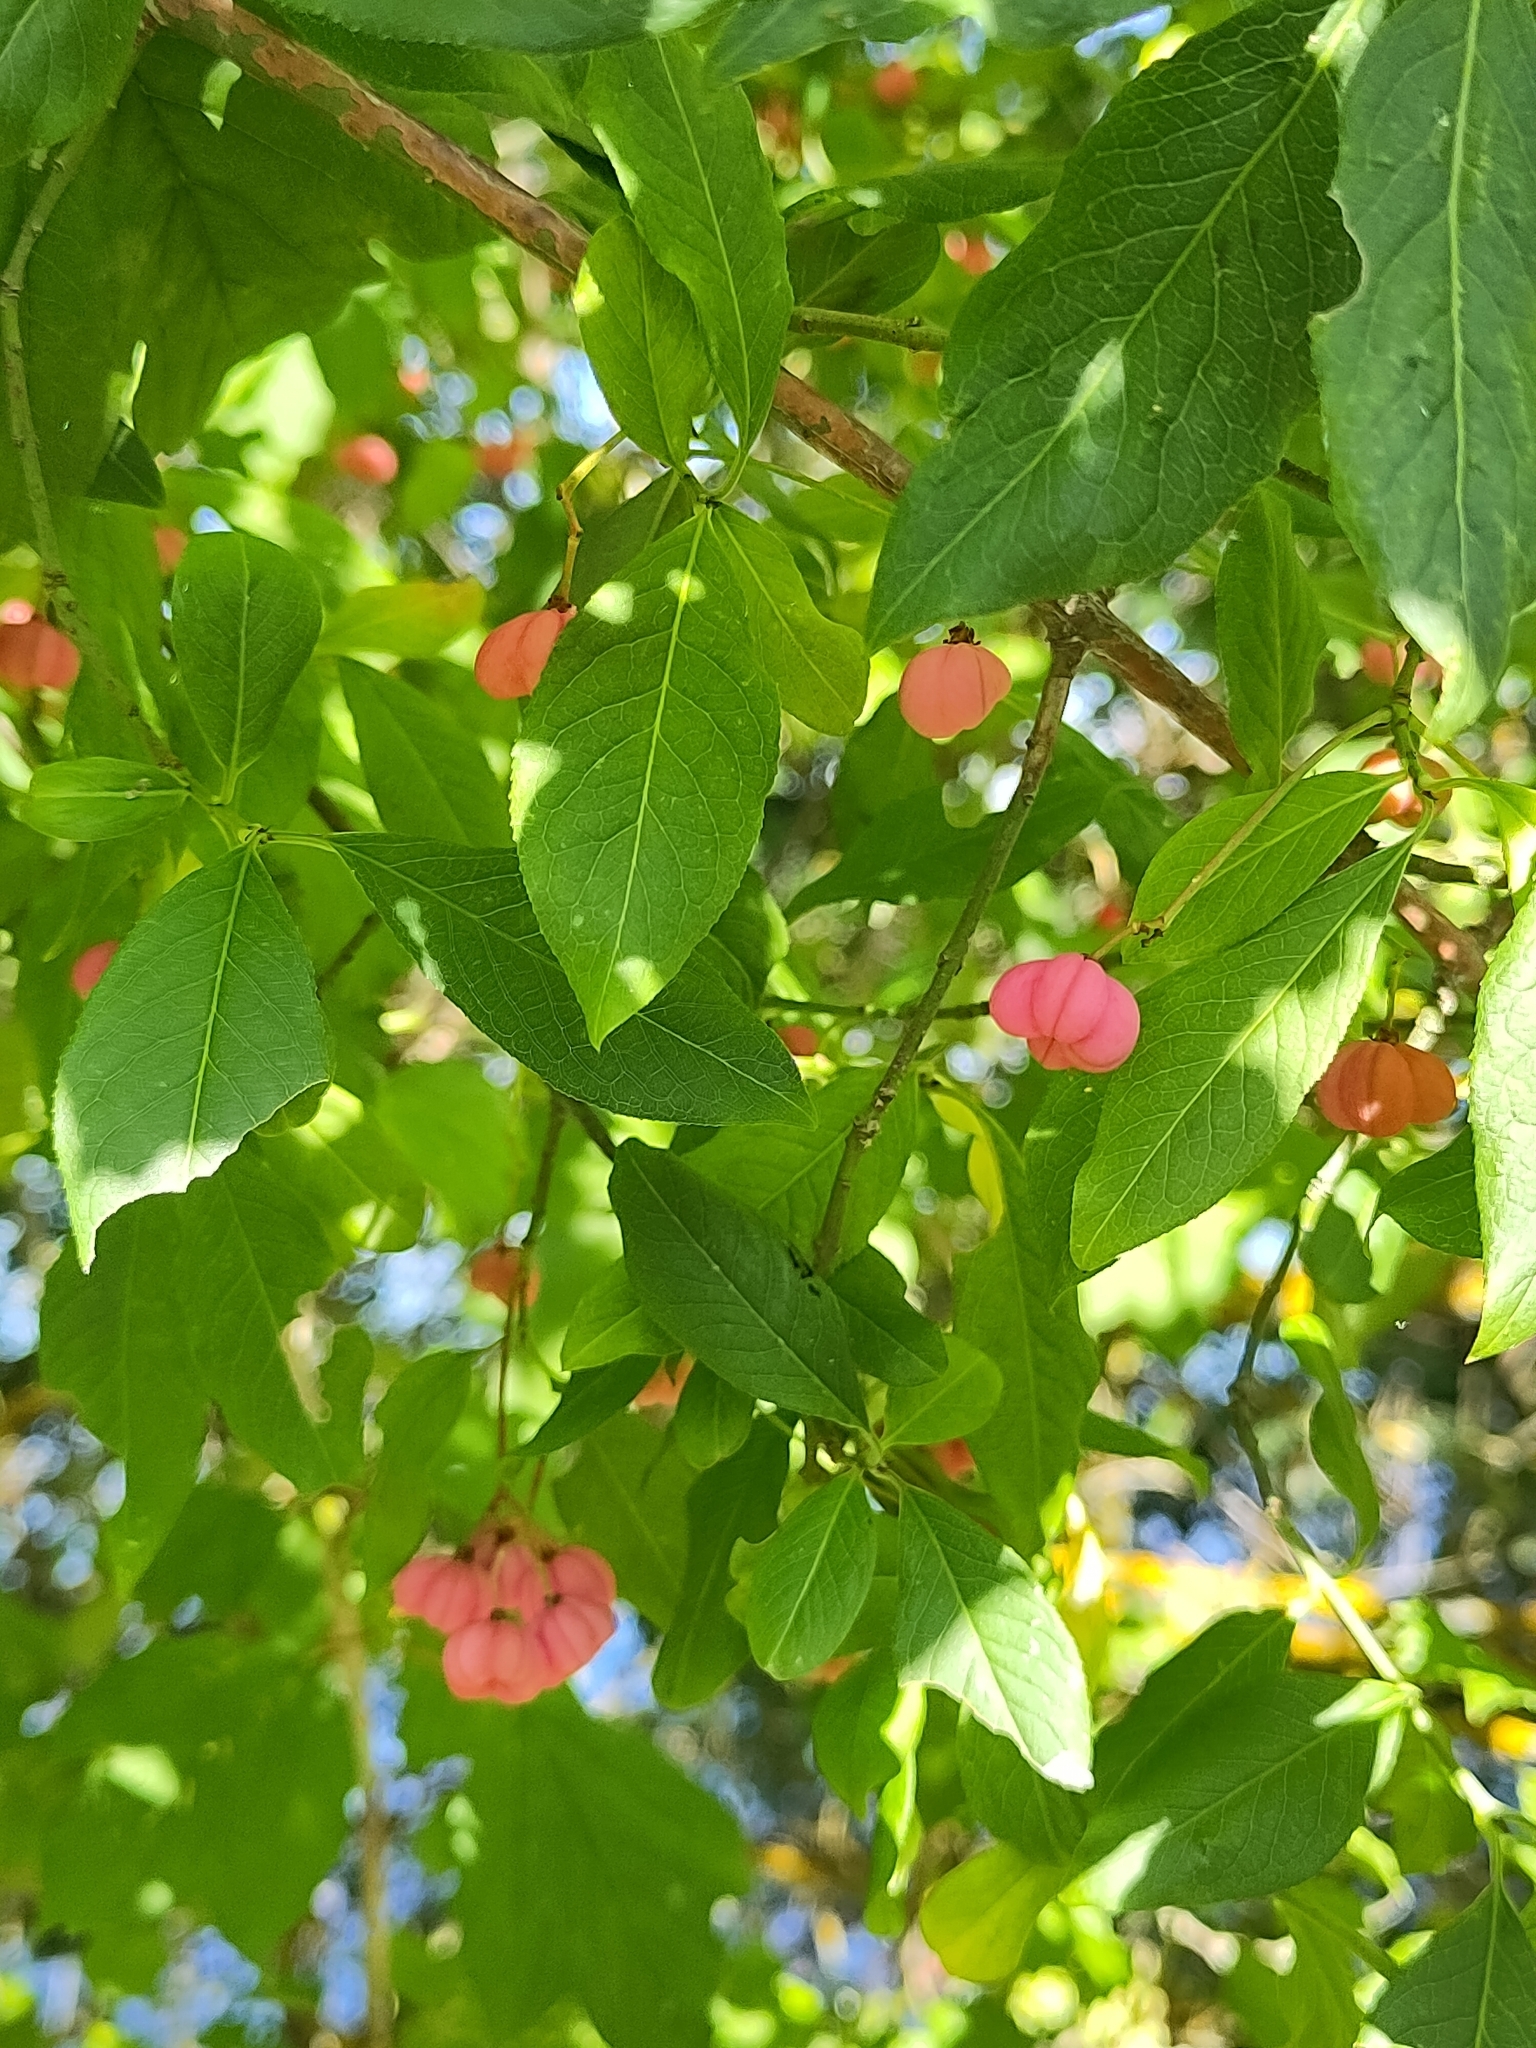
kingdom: Plantae
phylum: Tracheophyta
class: Magnoliopsida
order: Celastrales
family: Celastraceae
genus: Euonymus
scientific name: Euonymus europaeus
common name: Spindle
